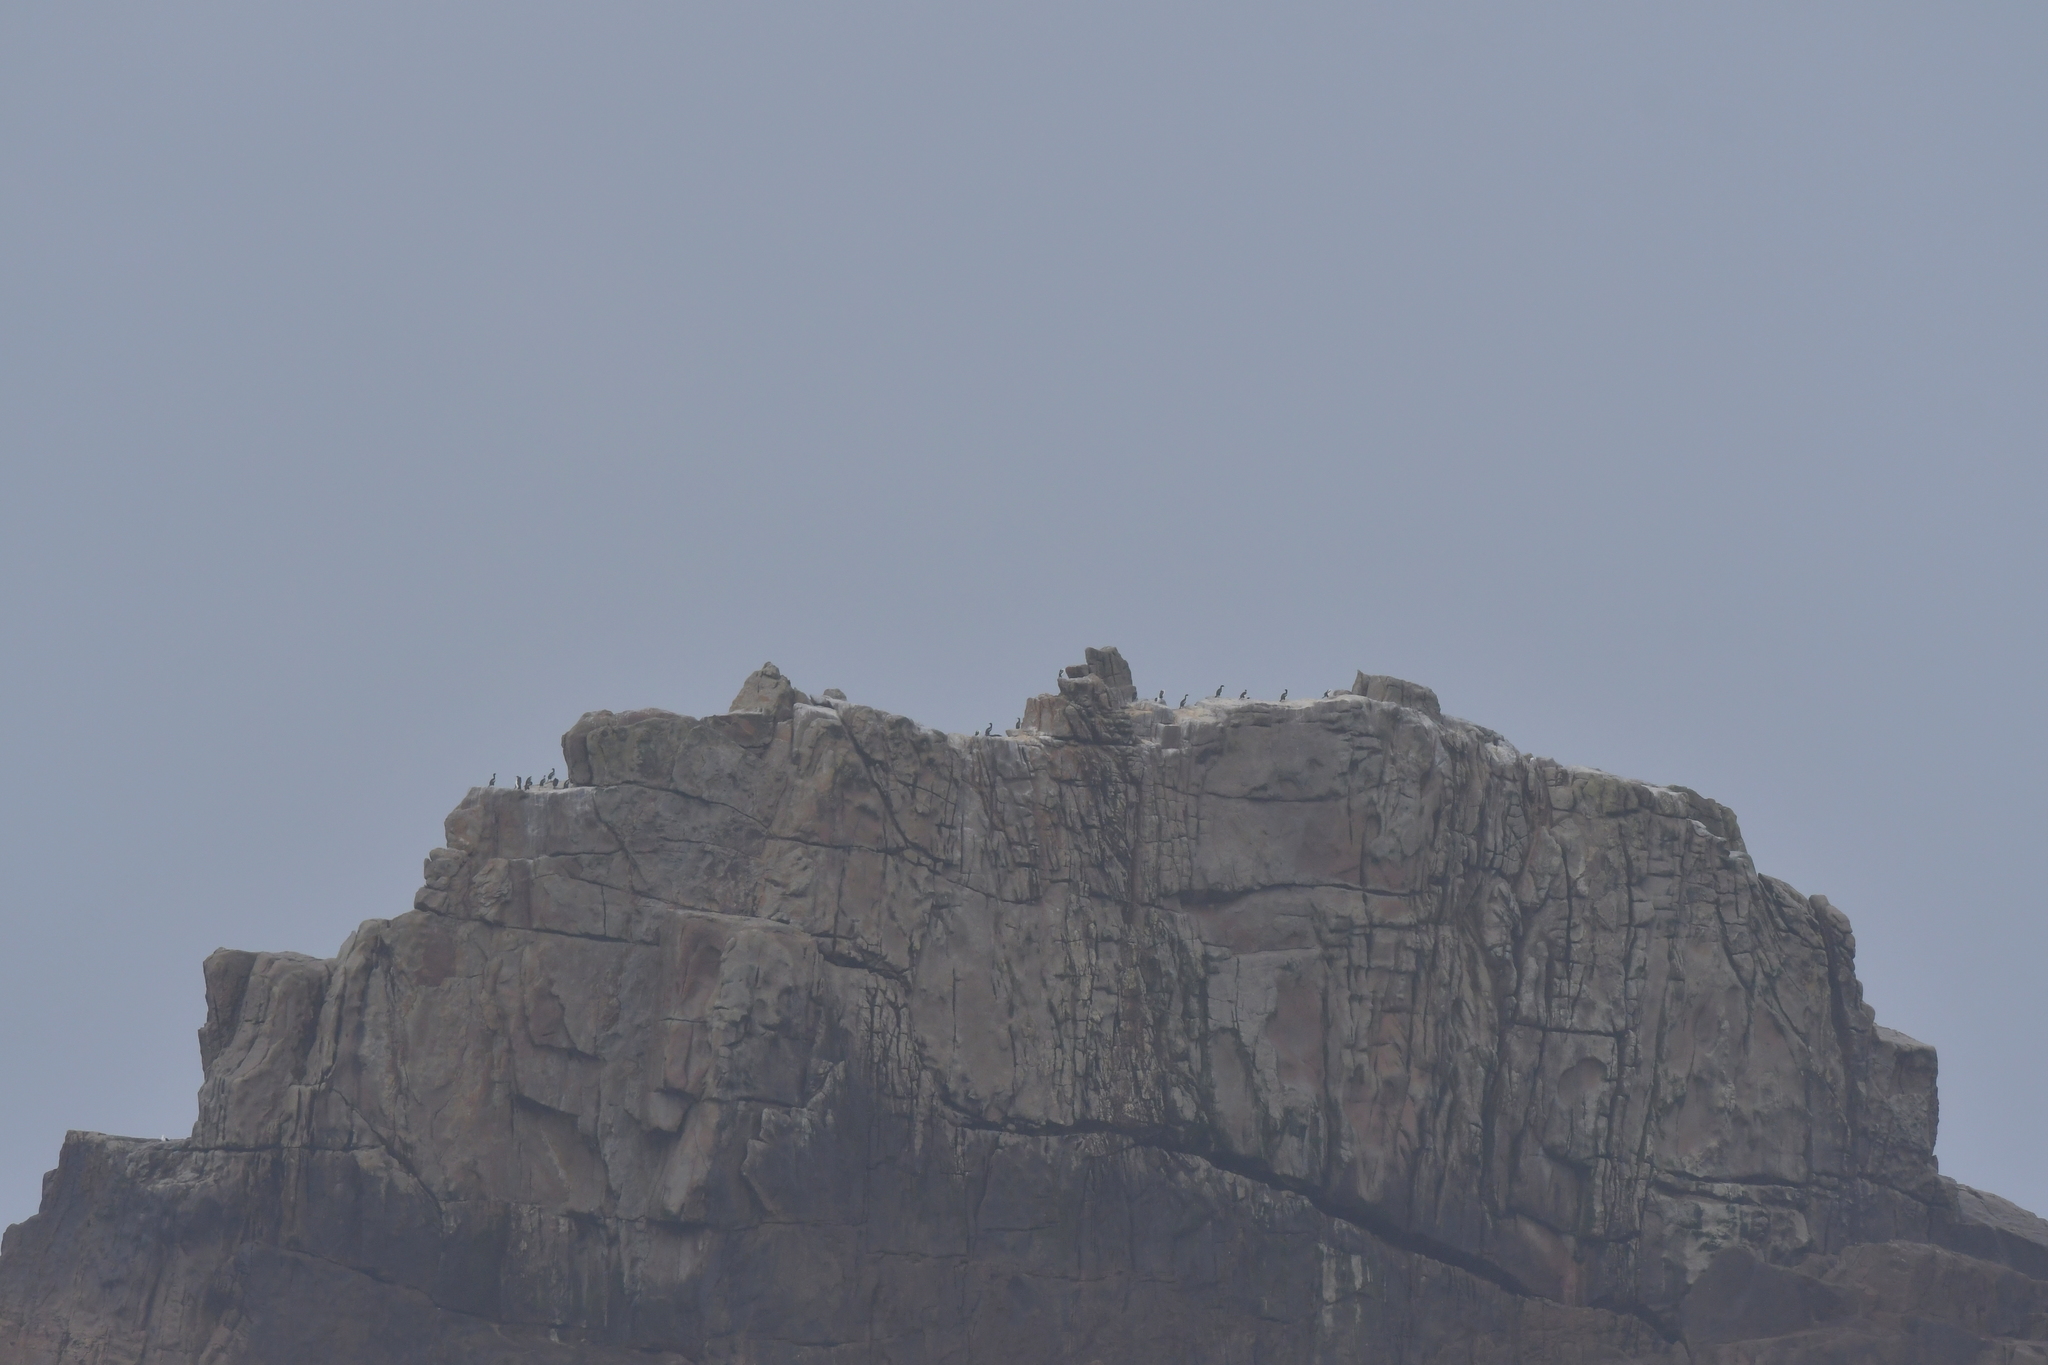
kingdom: Animalia
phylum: Chordata
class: Aves
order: Suliformes
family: Phalacrocoracidae
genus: Leucocarbo
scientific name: Leucocarbo ranfurlyi
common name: Bounty shag
